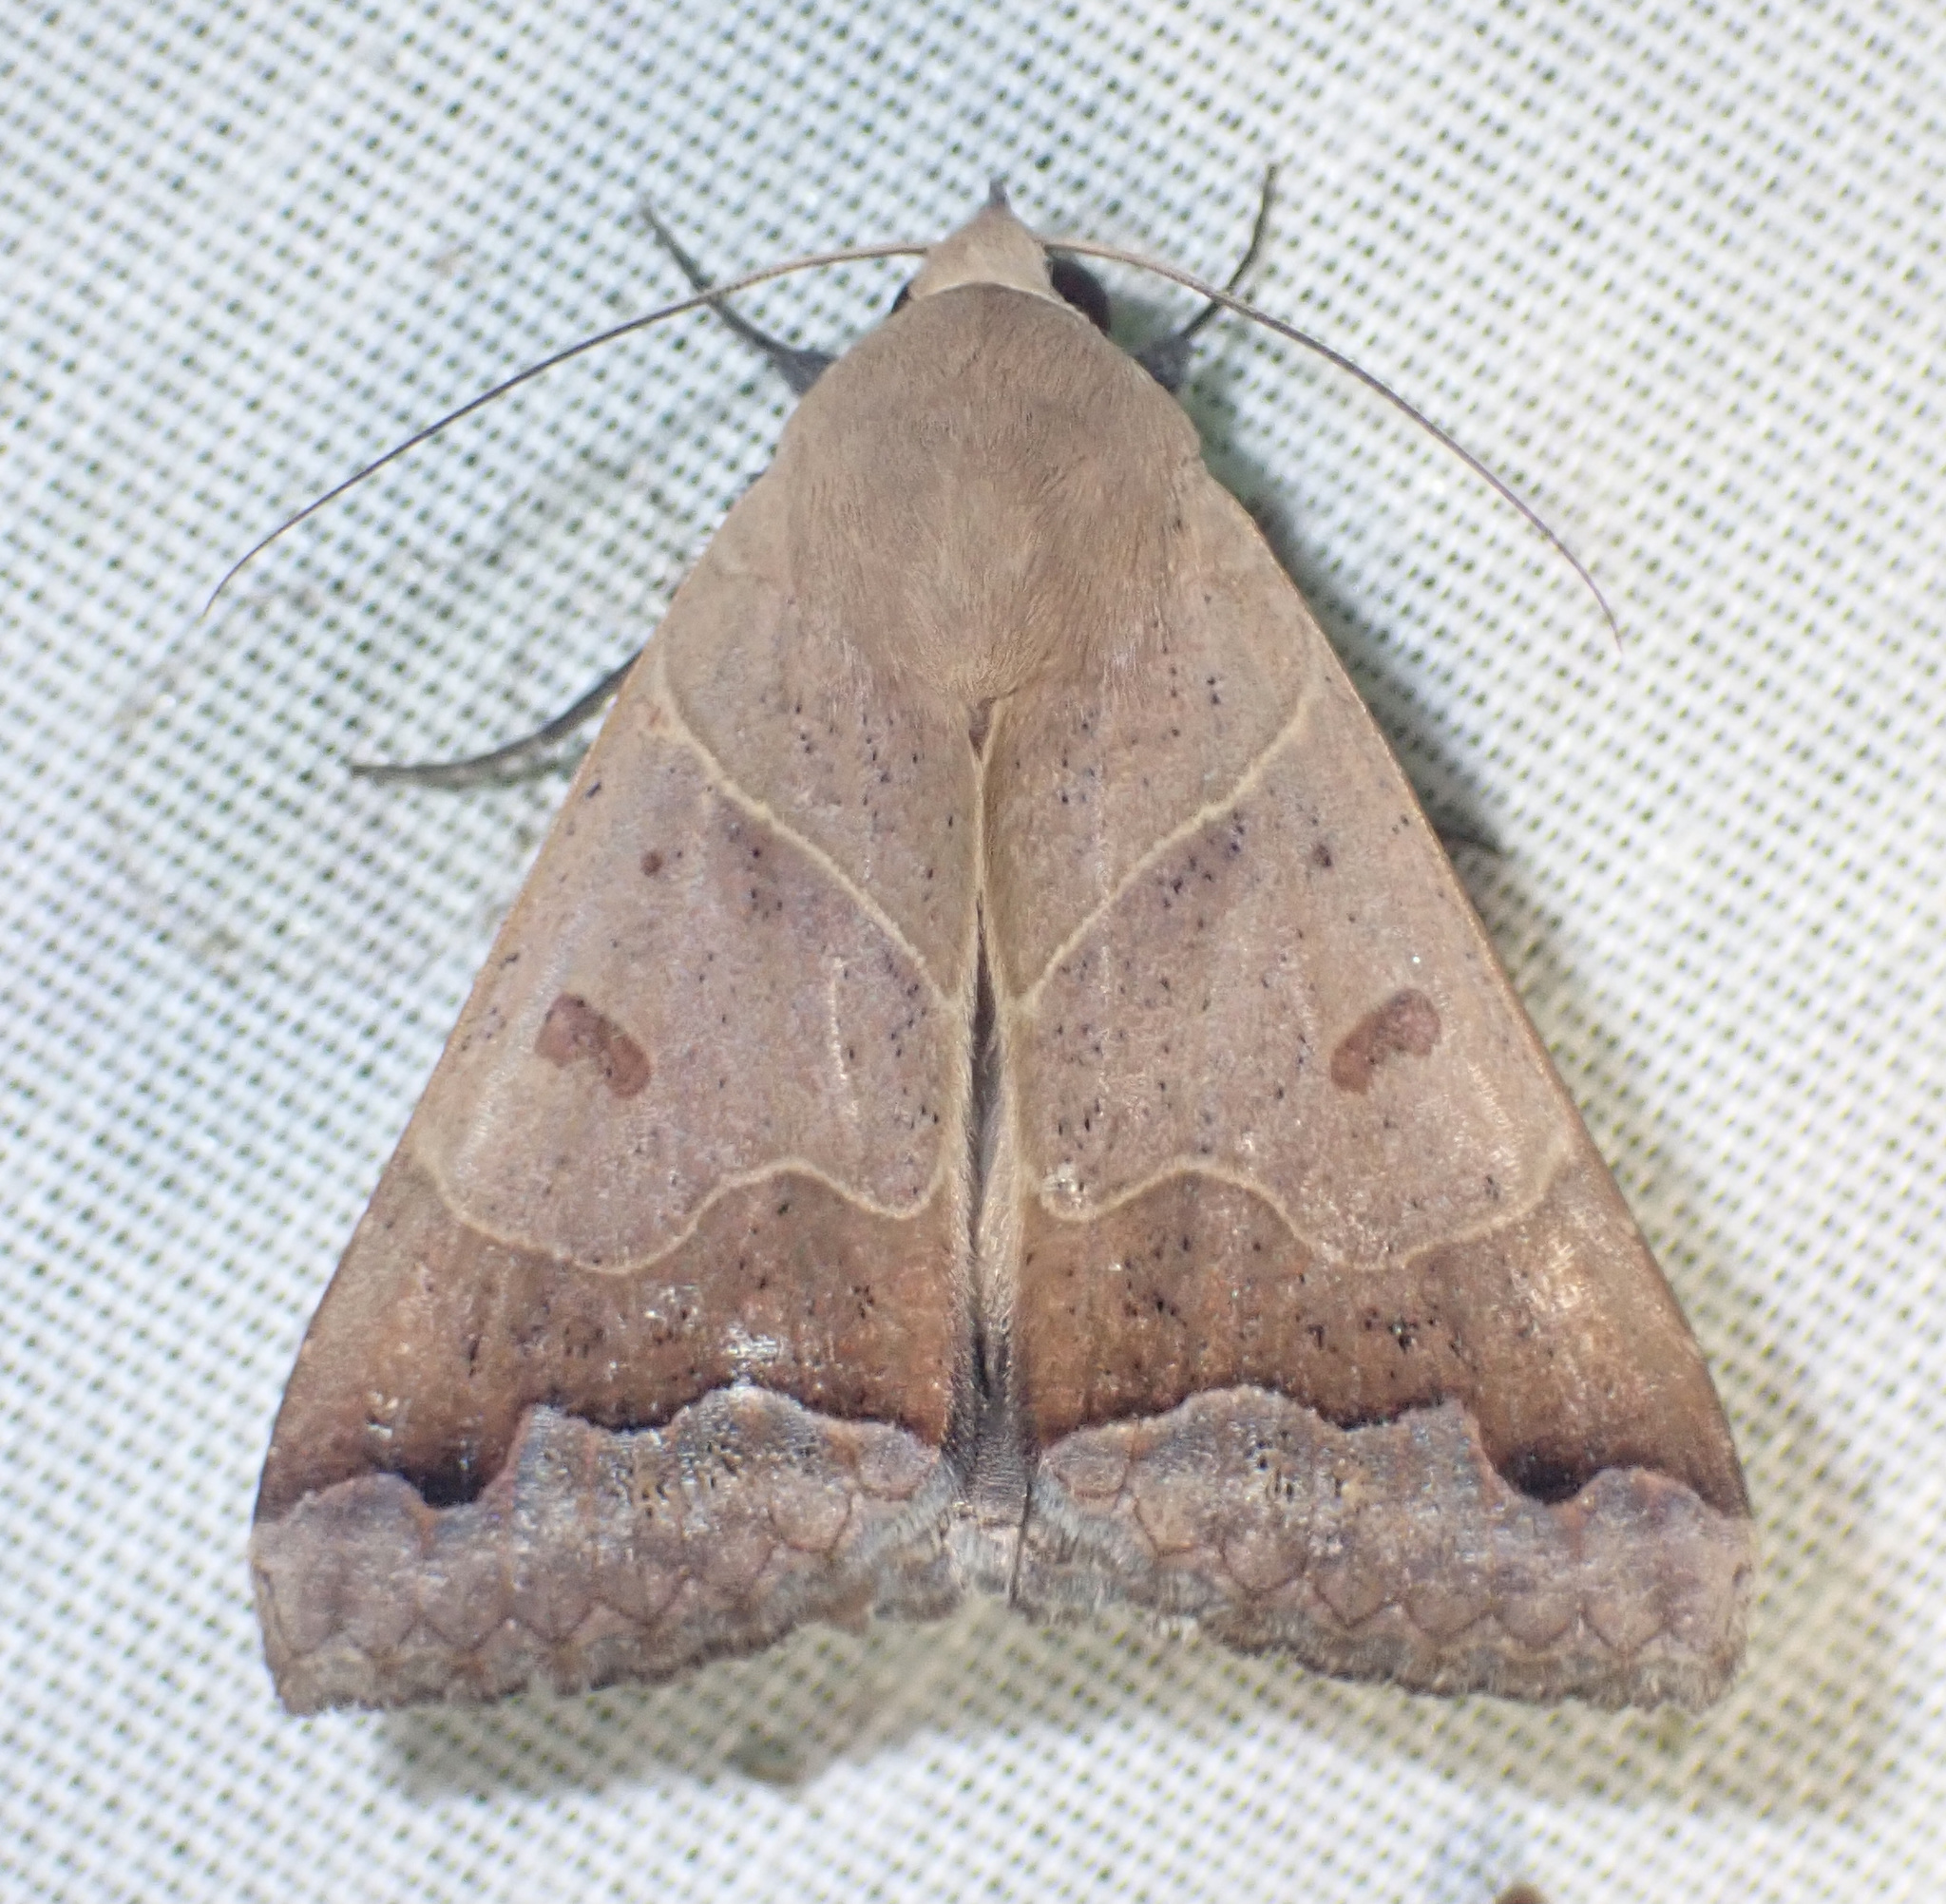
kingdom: Animalia
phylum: Arthropoda
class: Insecta
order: Lepidoptera
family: Erebidae
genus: Ophiusa
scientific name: Ophiusa mejanesi
